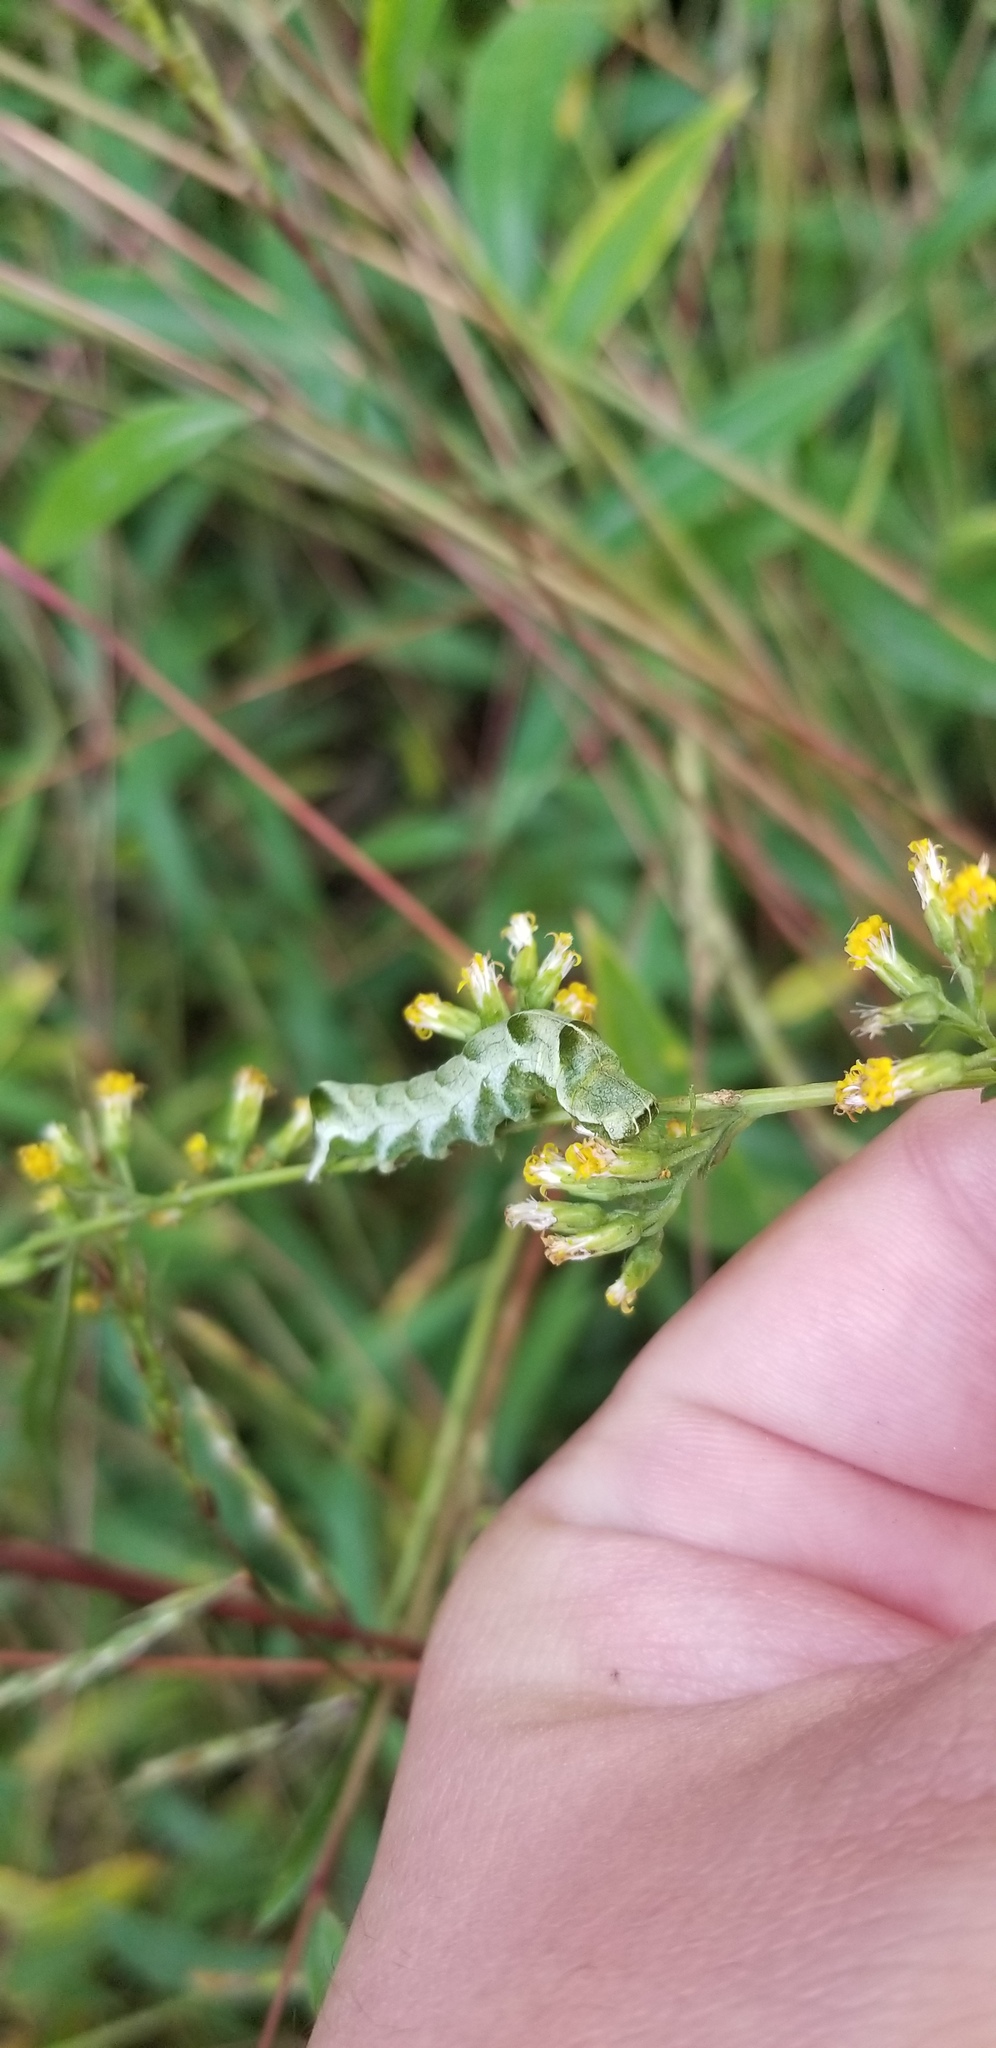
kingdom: Animalia
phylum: Arthropoda
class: Insecta
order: Lepidoptera
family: Noctuidae
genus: Melanchra
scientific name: Melanchra adjuncta
